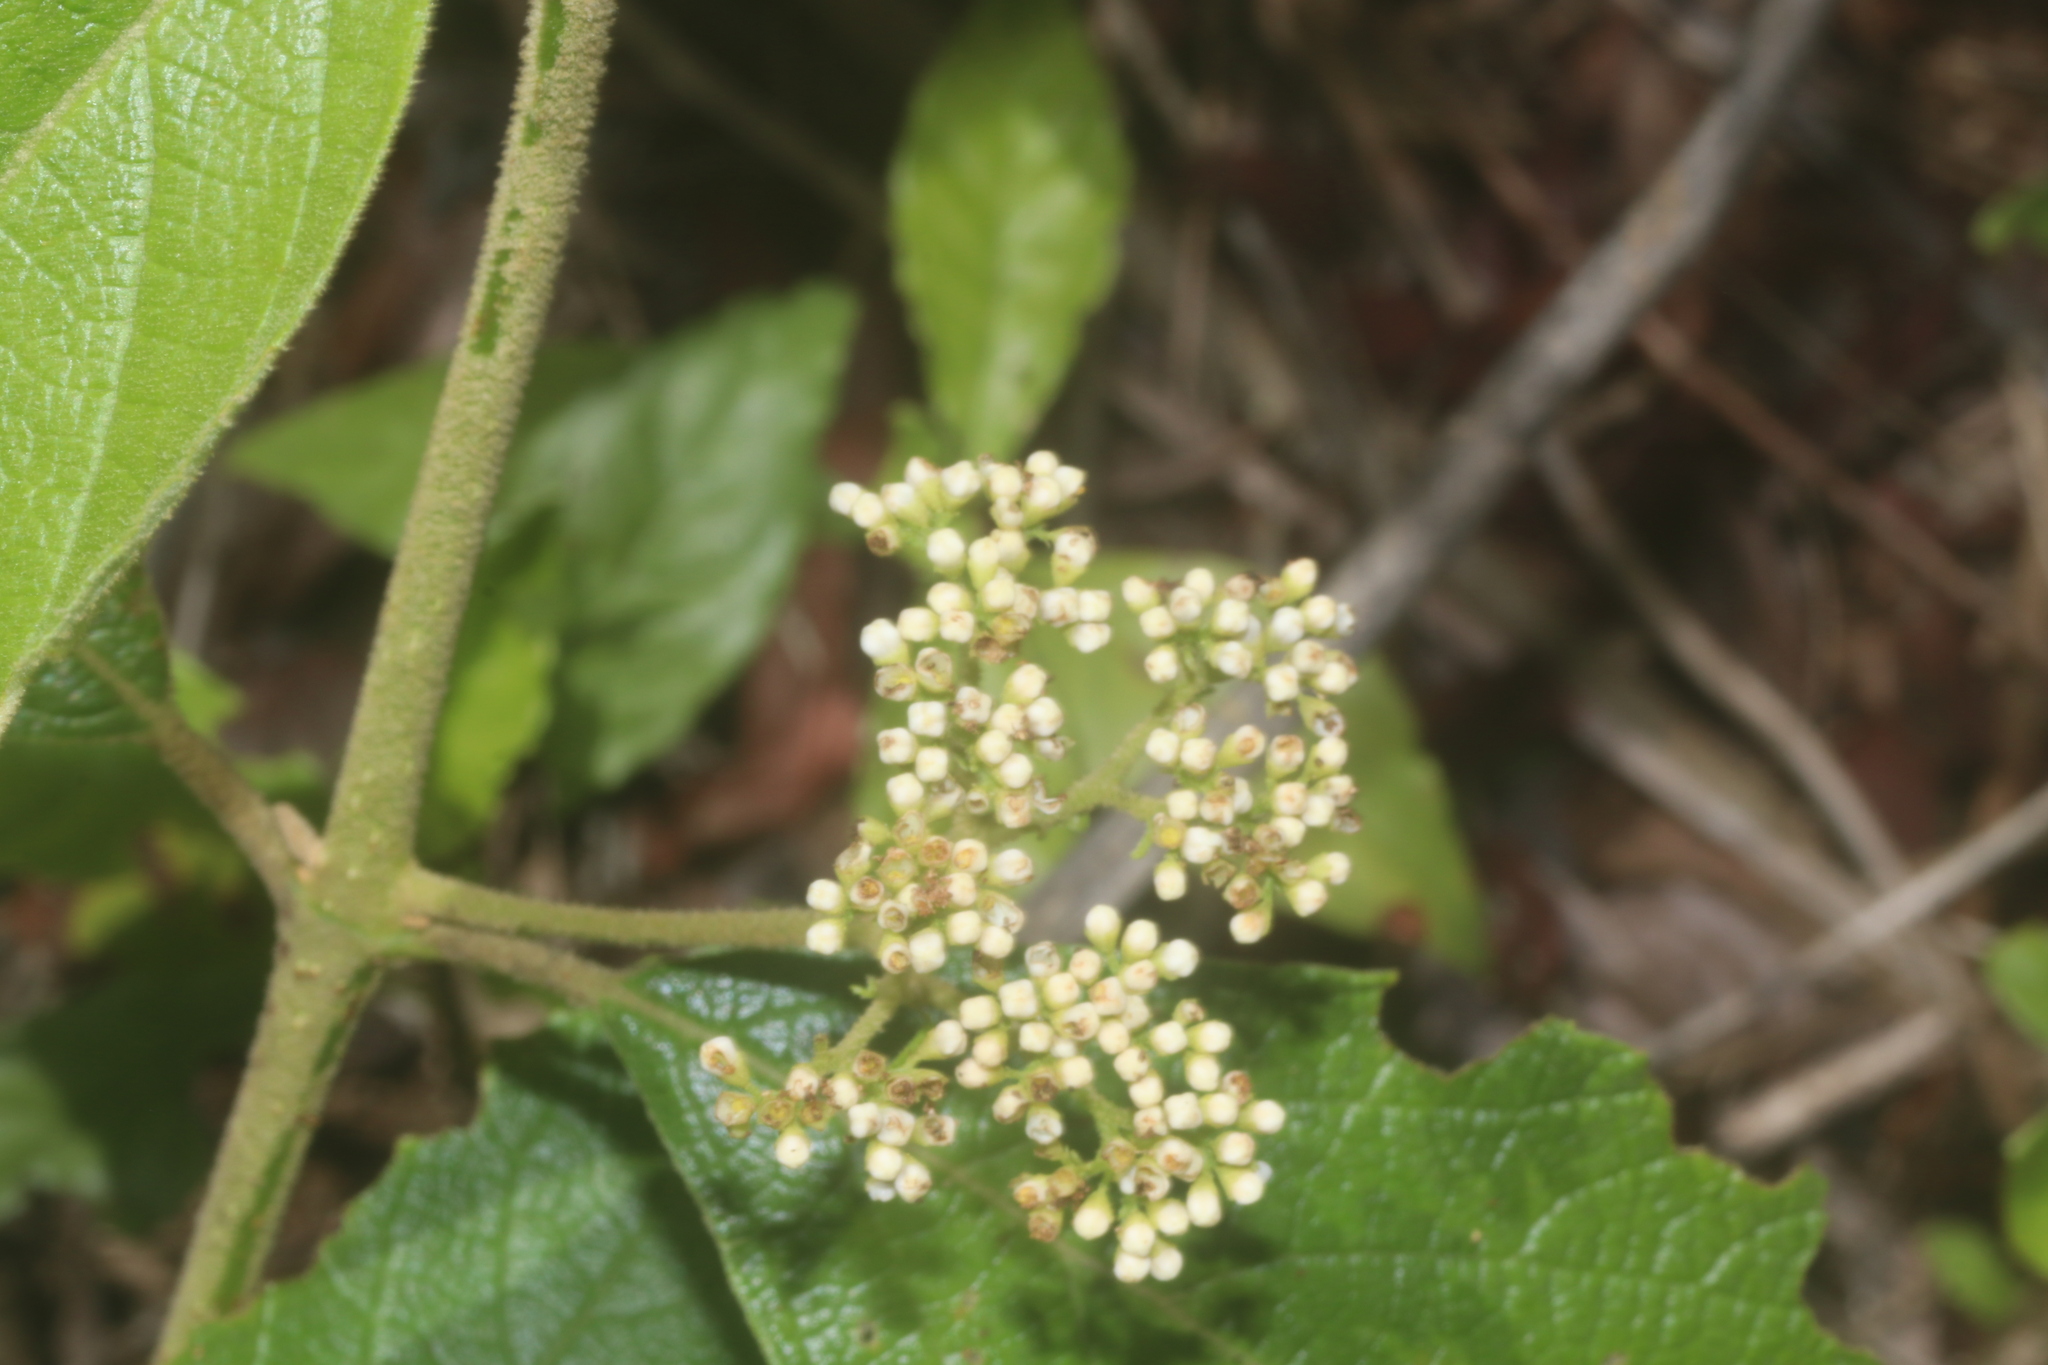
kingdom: Plantae
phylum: Tracheophyta
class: Magnoliopsida
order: Lamiales
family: Lamiaceae
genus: Callicarpa
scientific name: Callicarpa acuminata
